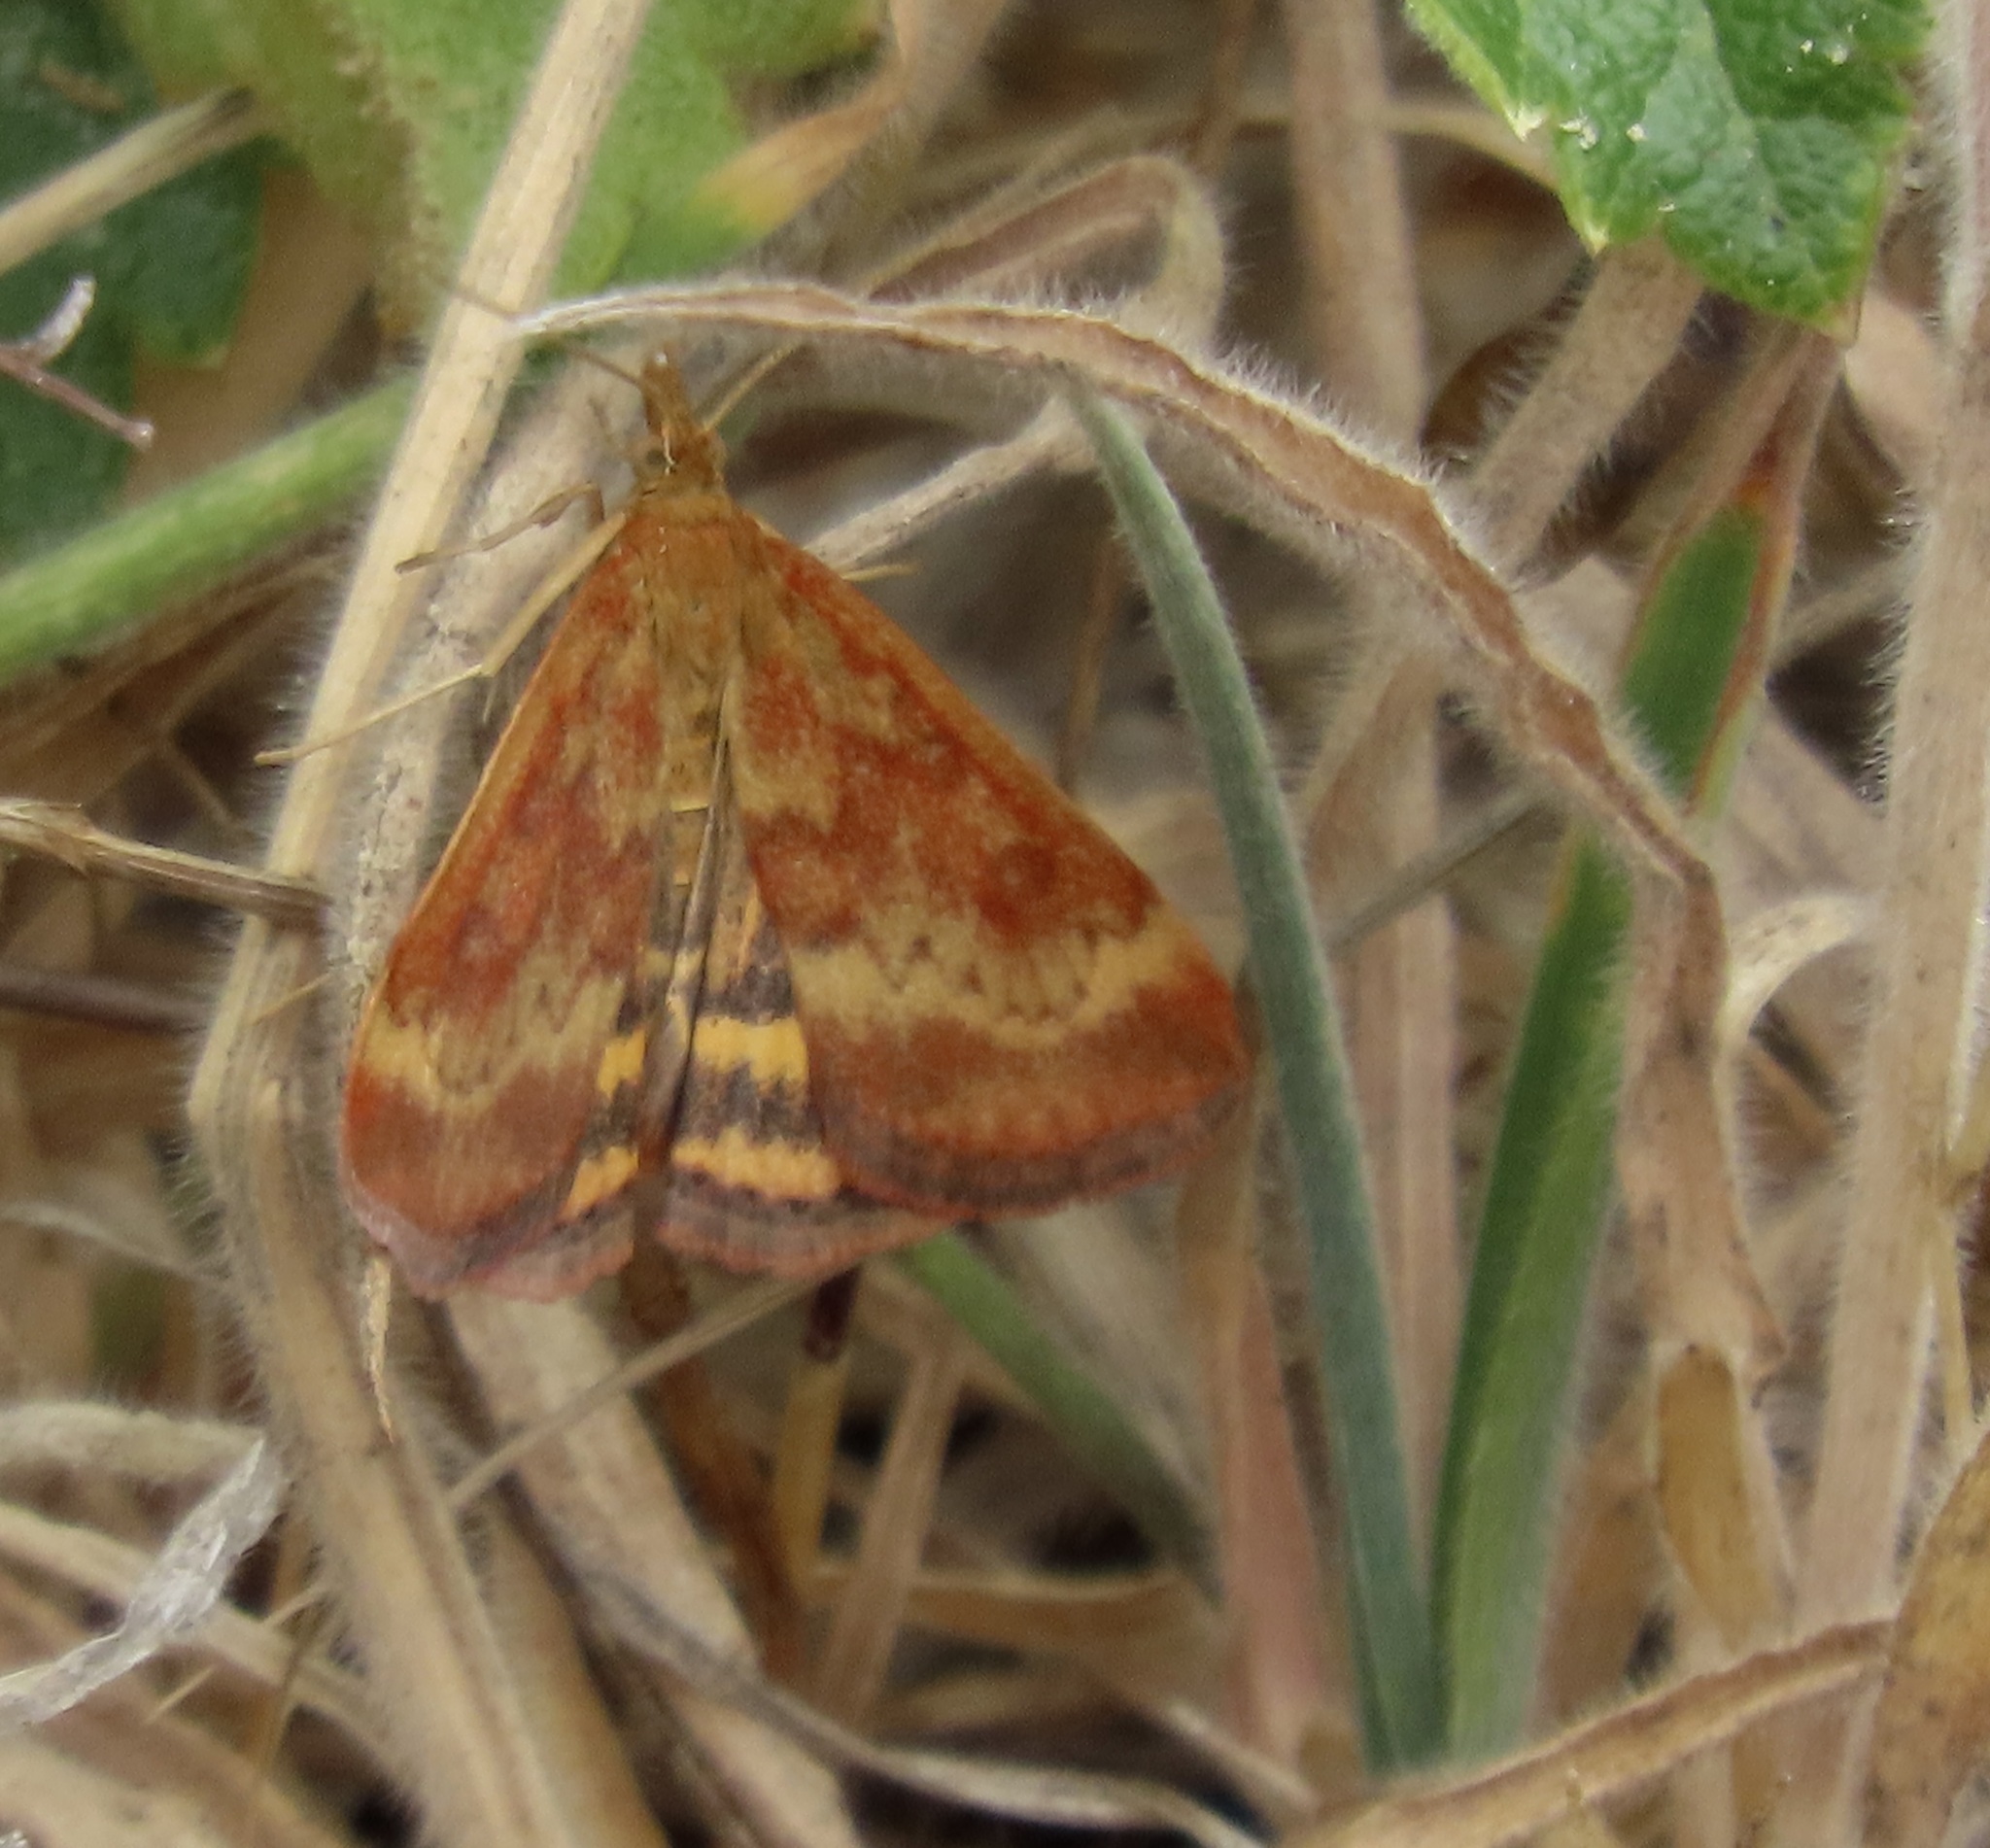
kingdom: Animalia
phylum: Arthropoda
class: Insecta
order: Lepidoptera
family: Crambidae
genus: Pyrausta
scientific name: Pyrausta subsequalis
